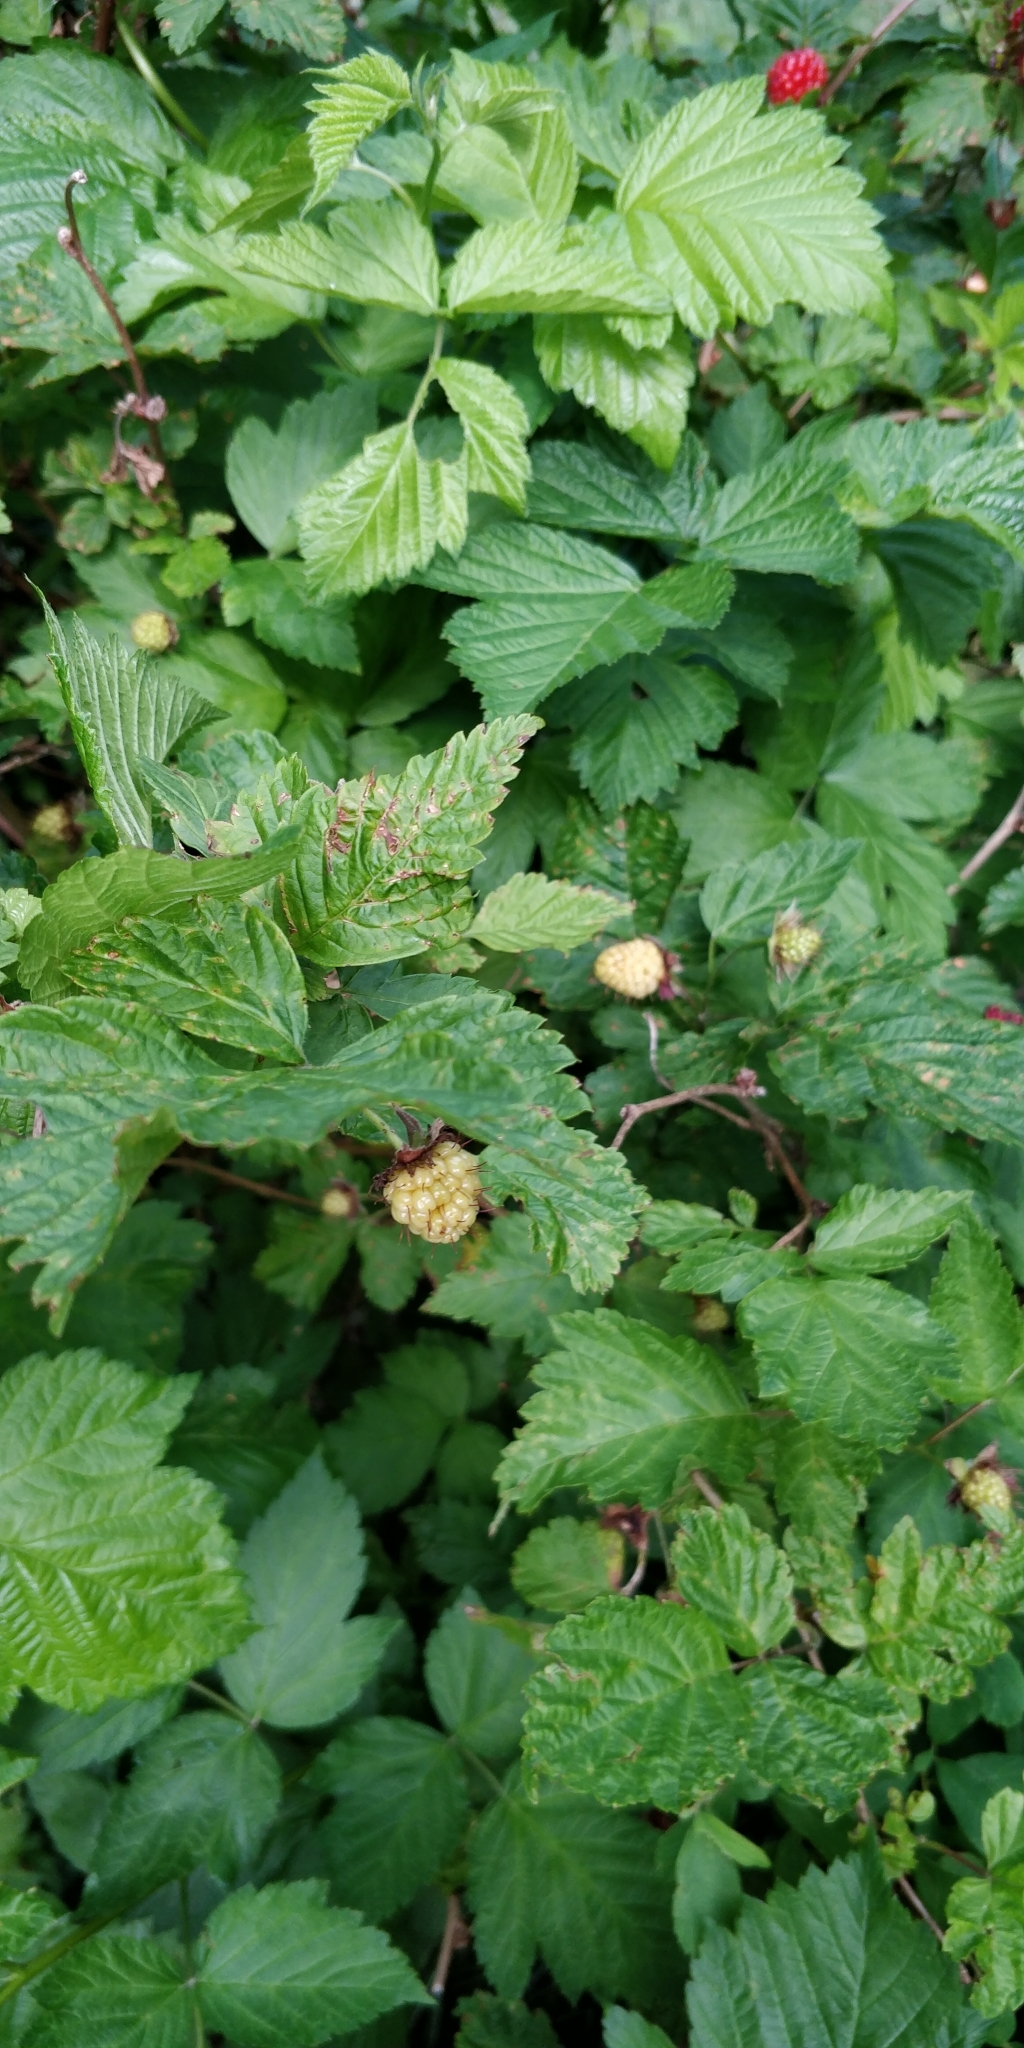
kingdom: Plantae
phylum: Tracheophyta
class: Magnoliopsida
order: Rosales
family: Rosaceae
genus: Rubus
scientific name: Rubus spectabilis
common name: Salmonberry
